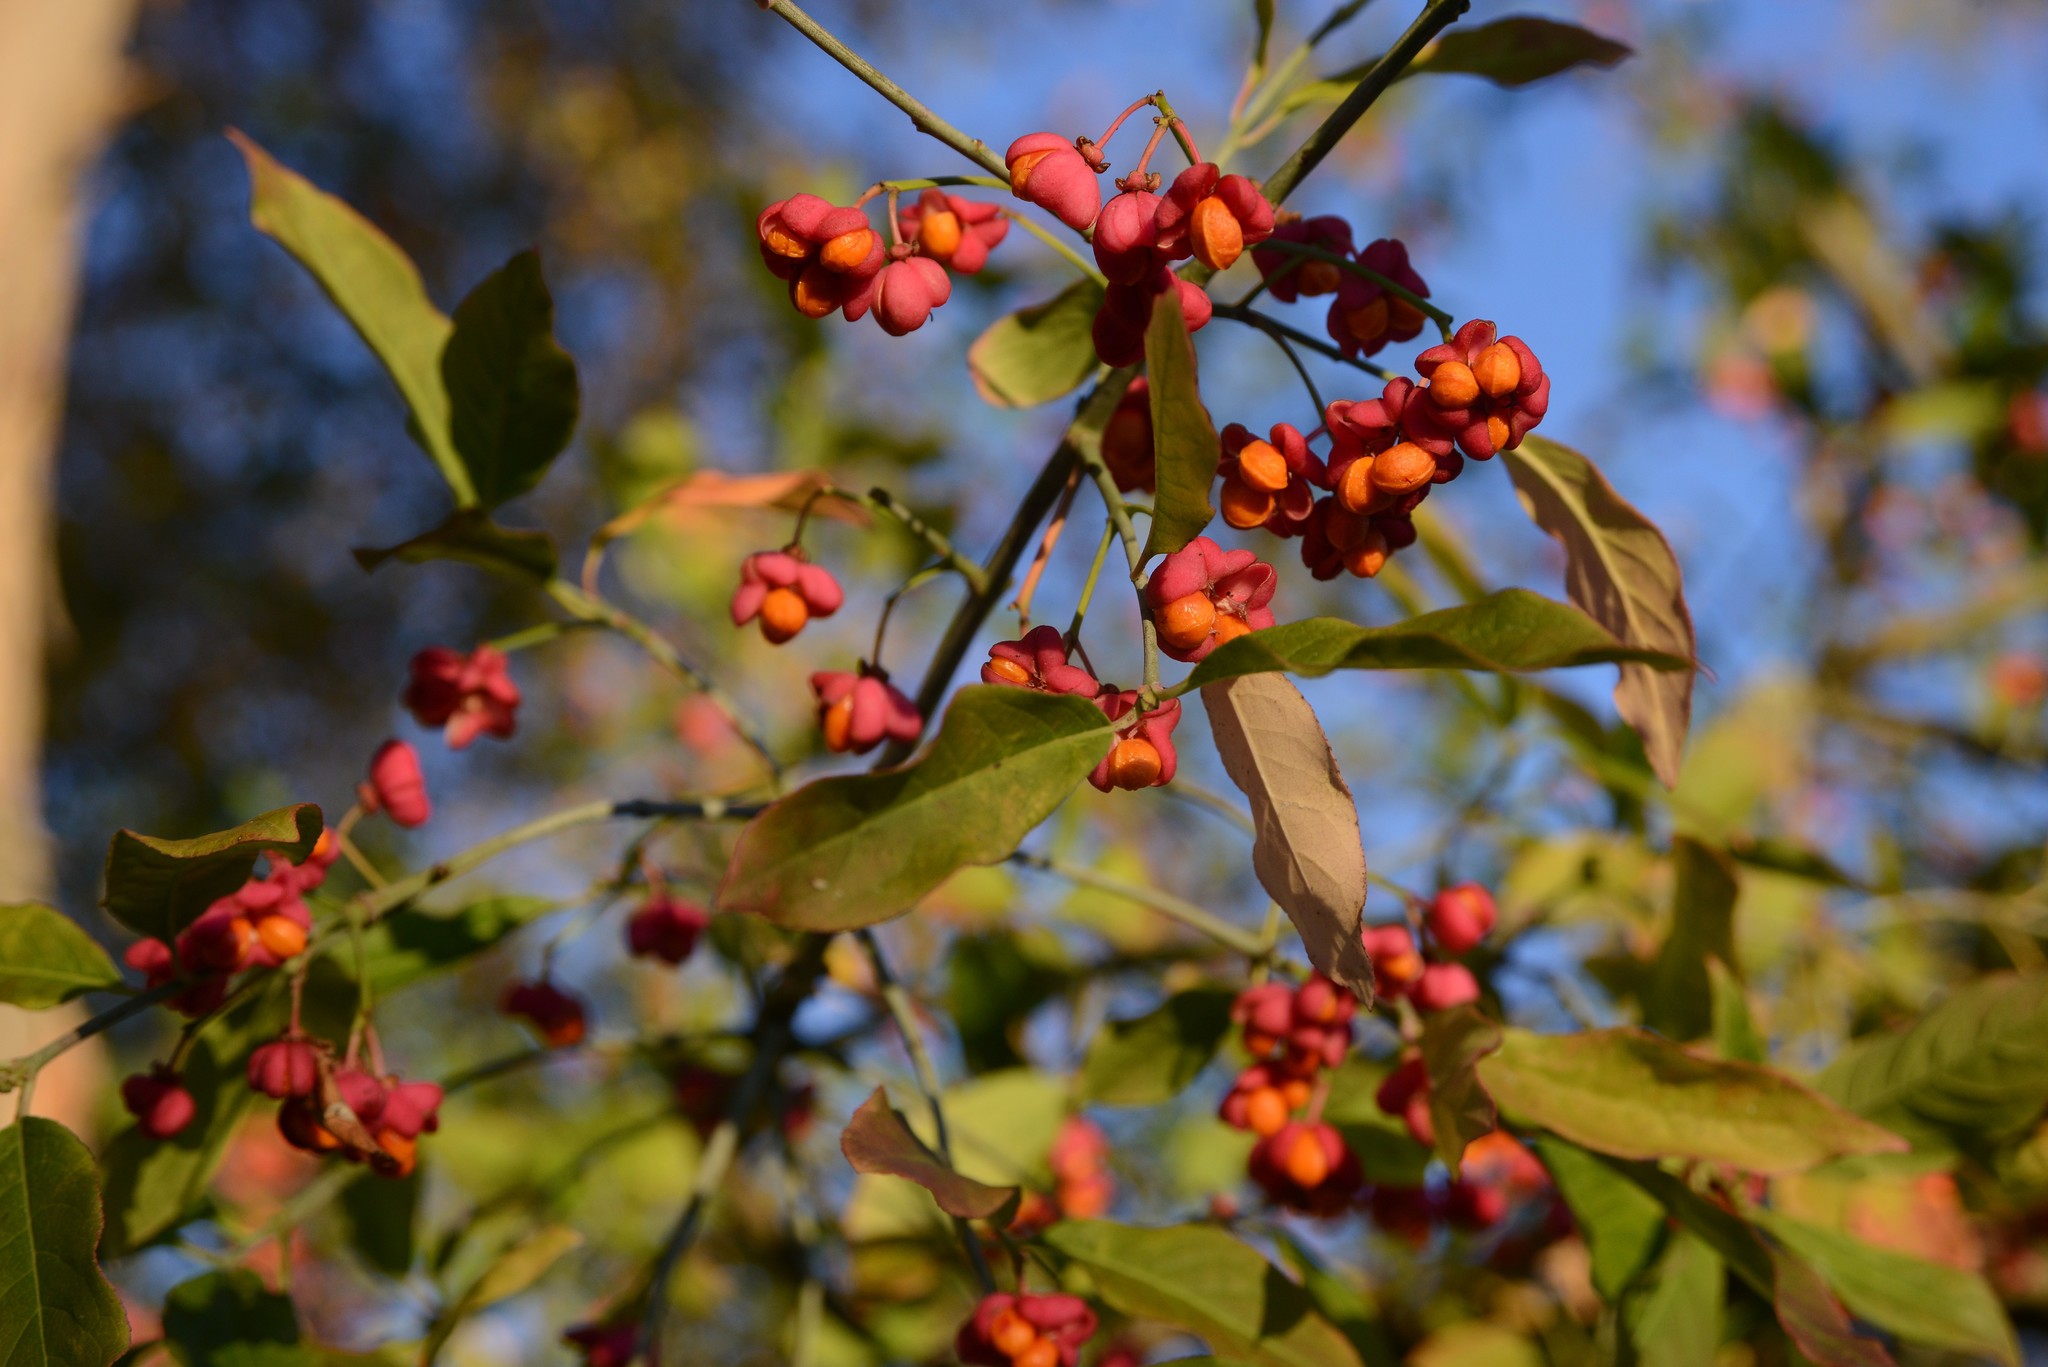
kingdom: Plantae
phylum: Tracheophyta
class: Magnoliopsida
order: Celastrales
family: Celastraceae
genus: Euonymus
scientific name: Euonymus europaeus
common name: Spindle
